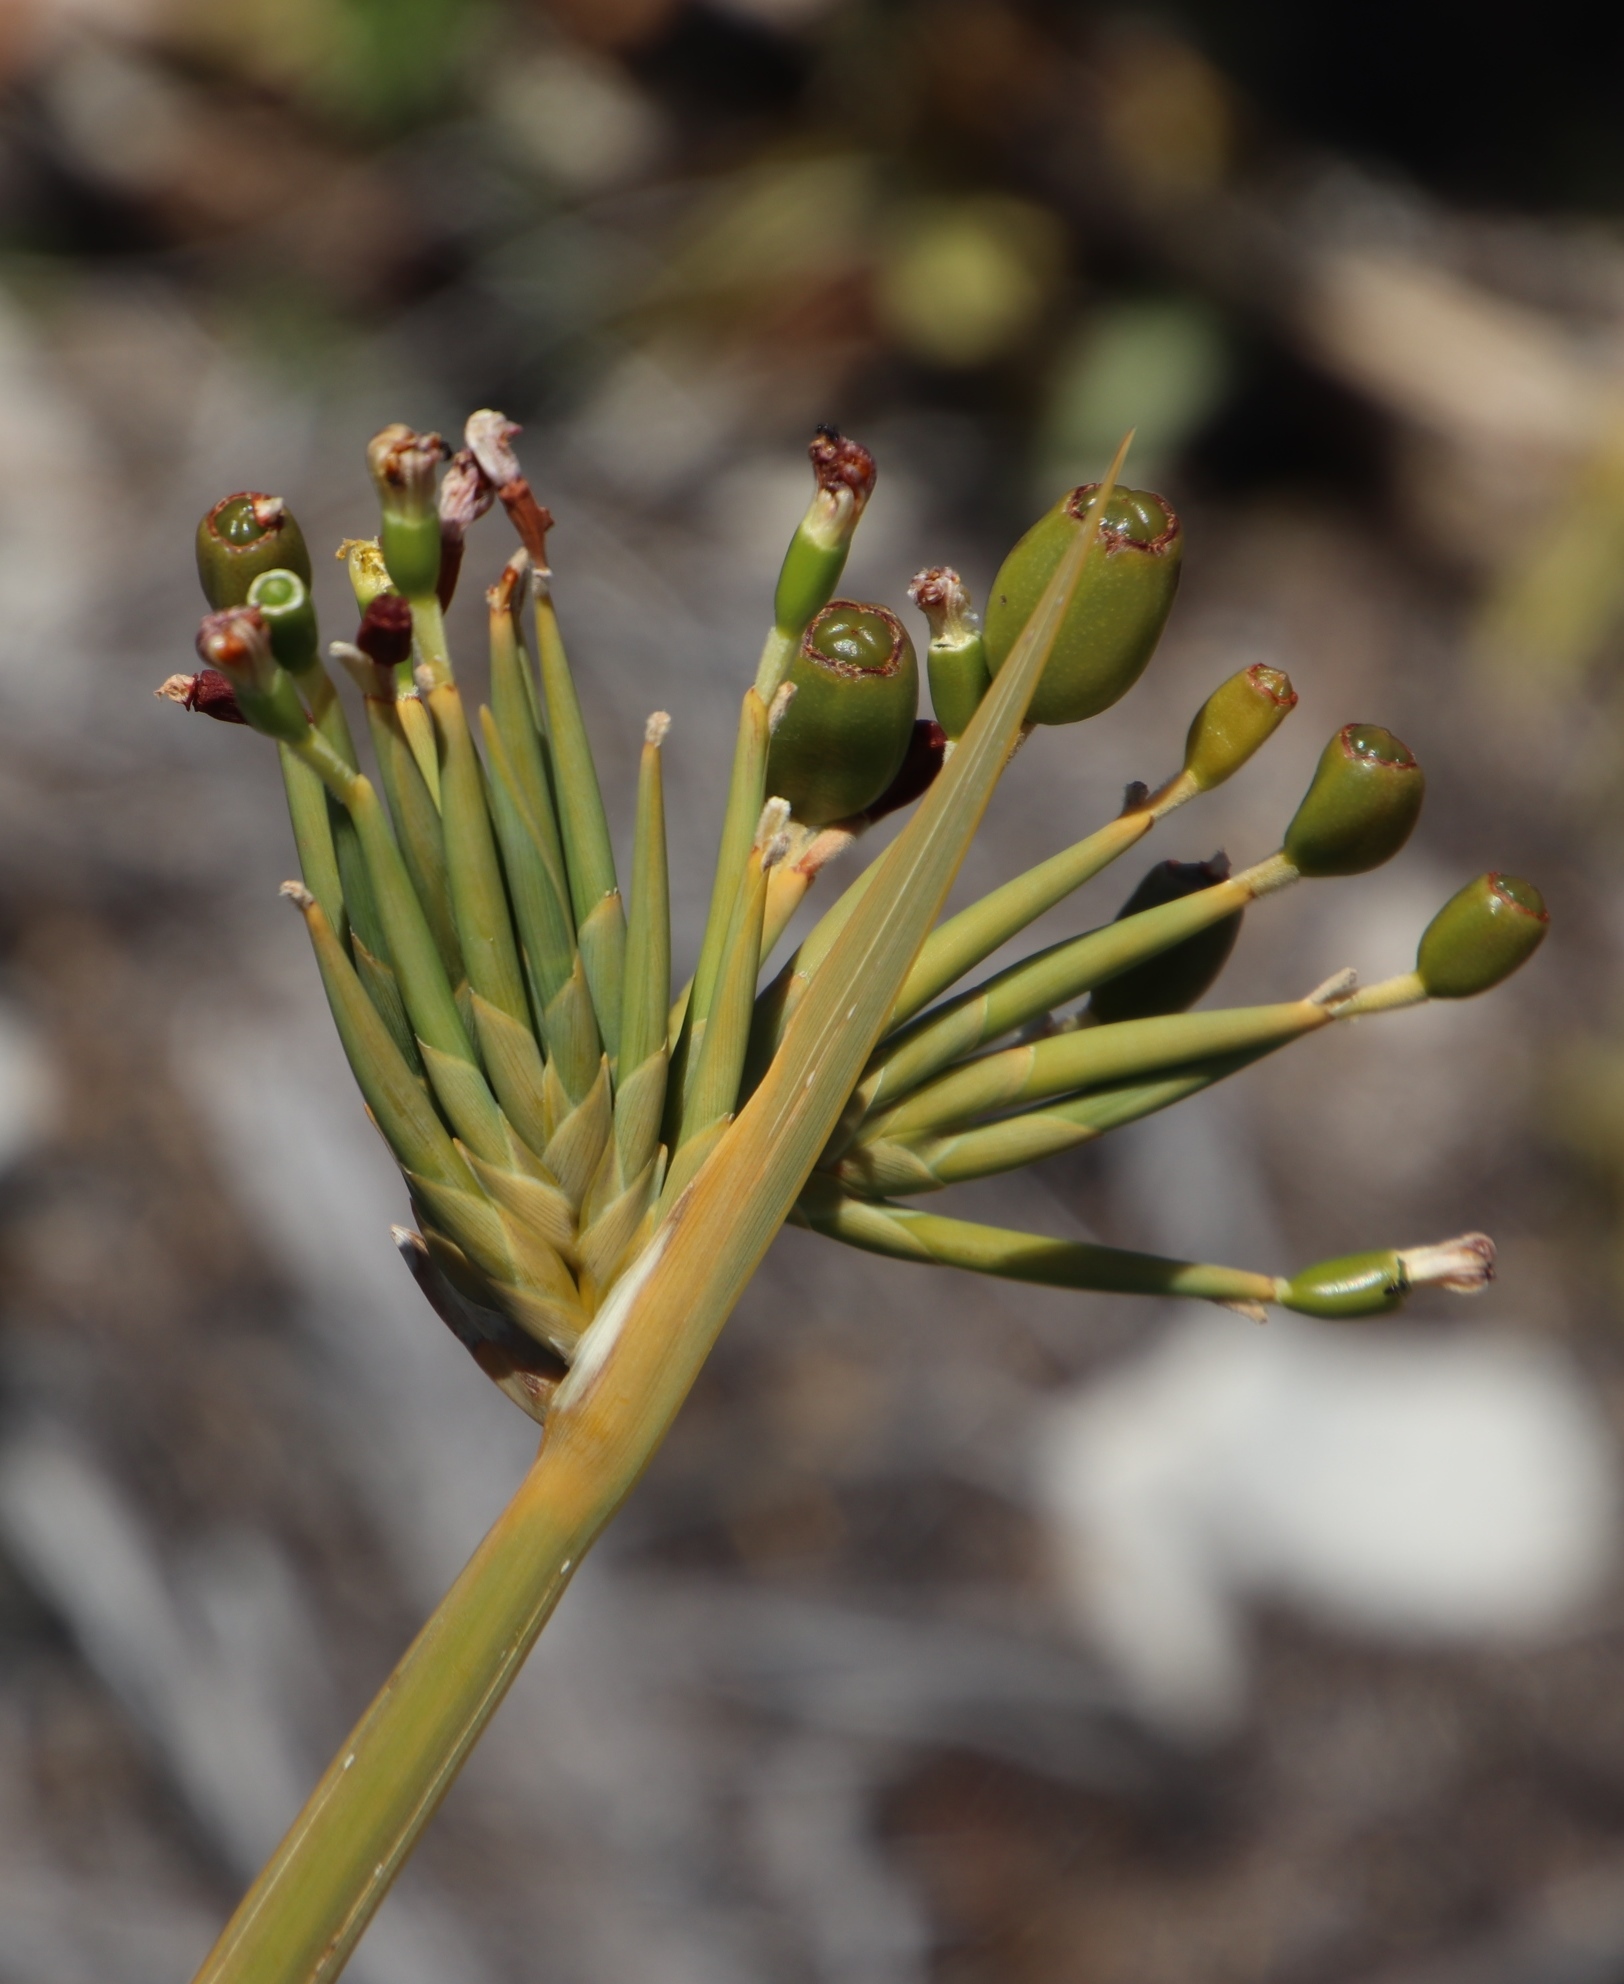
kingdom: Plantae
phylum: Tracheophyta
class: Liliopsida
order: Asparagales
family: Iridaceae
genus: Bobartia
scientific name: Bobartia gladiata
